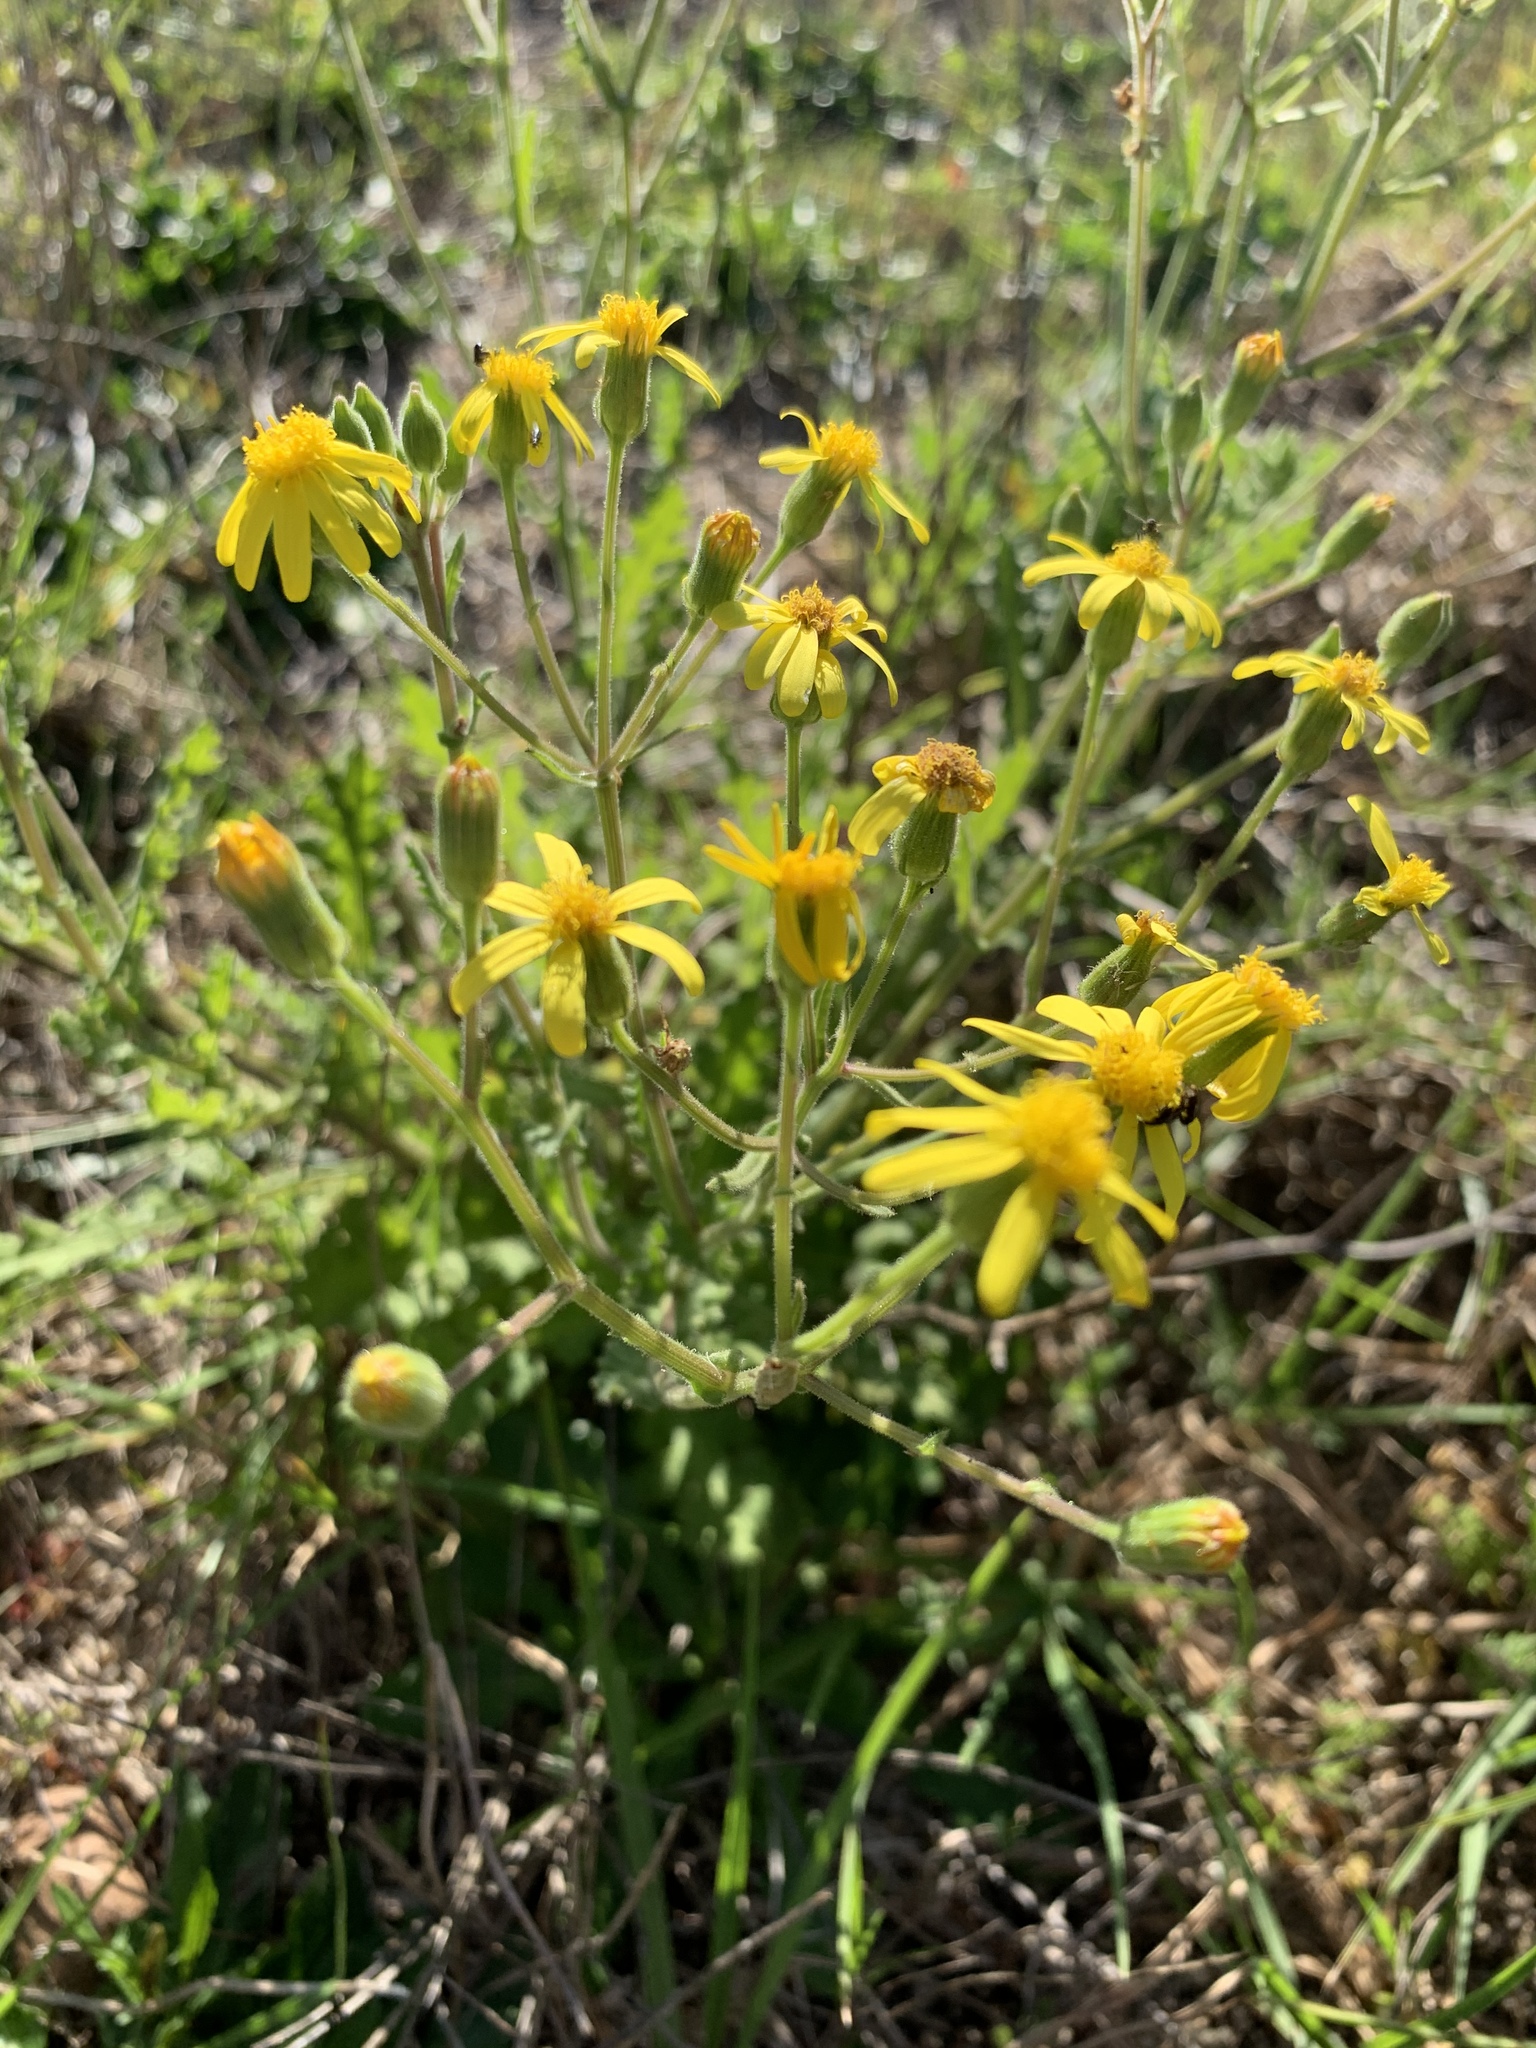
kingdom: Plantae
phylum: Tracheophyta
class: Magnoliopsida
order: Asterales
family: Asteraceae
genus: Senecio
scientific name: Senecio hastatus
